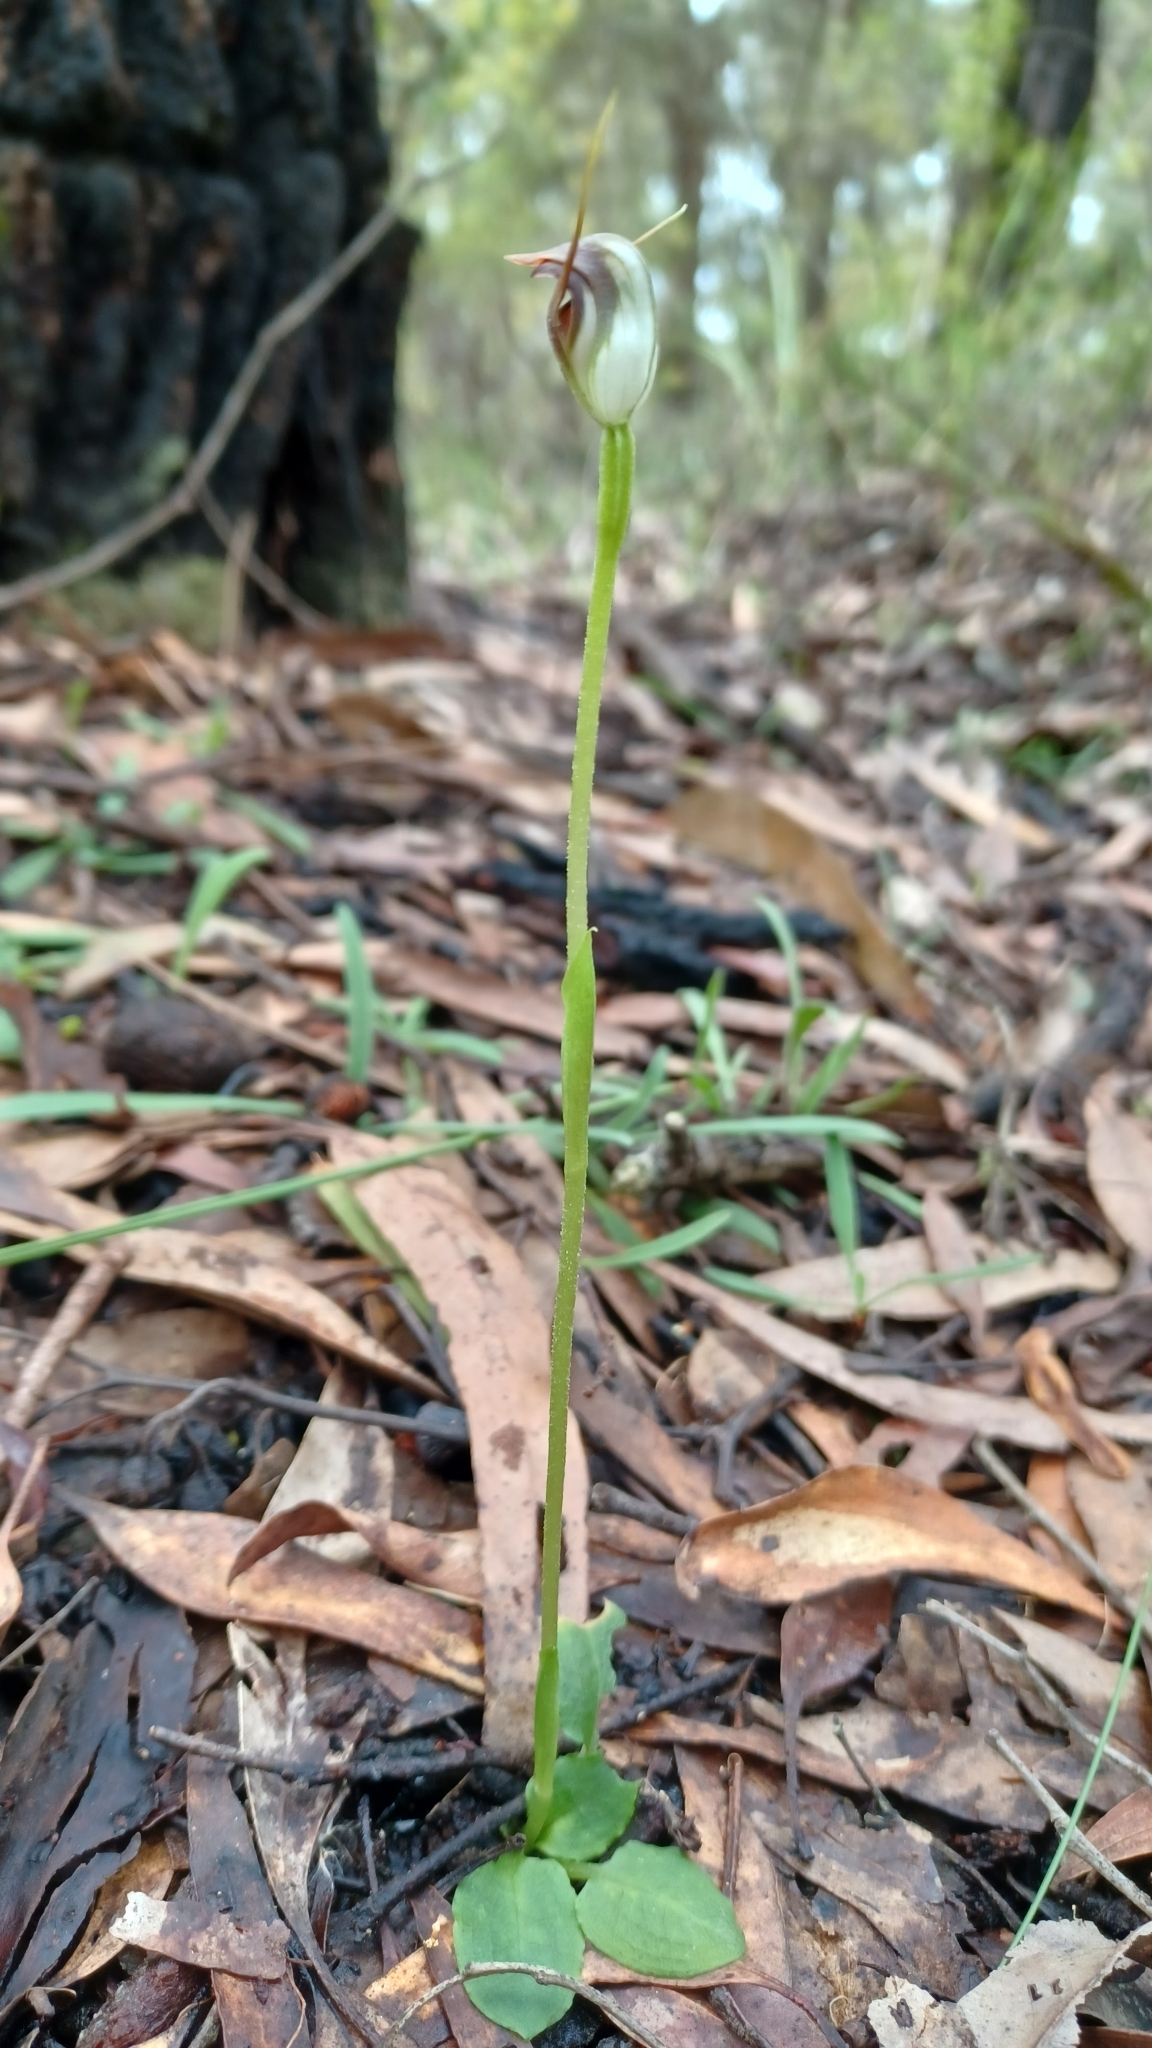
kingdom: Plantae
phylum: Tracheophyta
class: Liliopsida
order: Asparagales
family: Orchidaceae
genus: Pterostylis
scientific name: Pterostylis pedunculata
